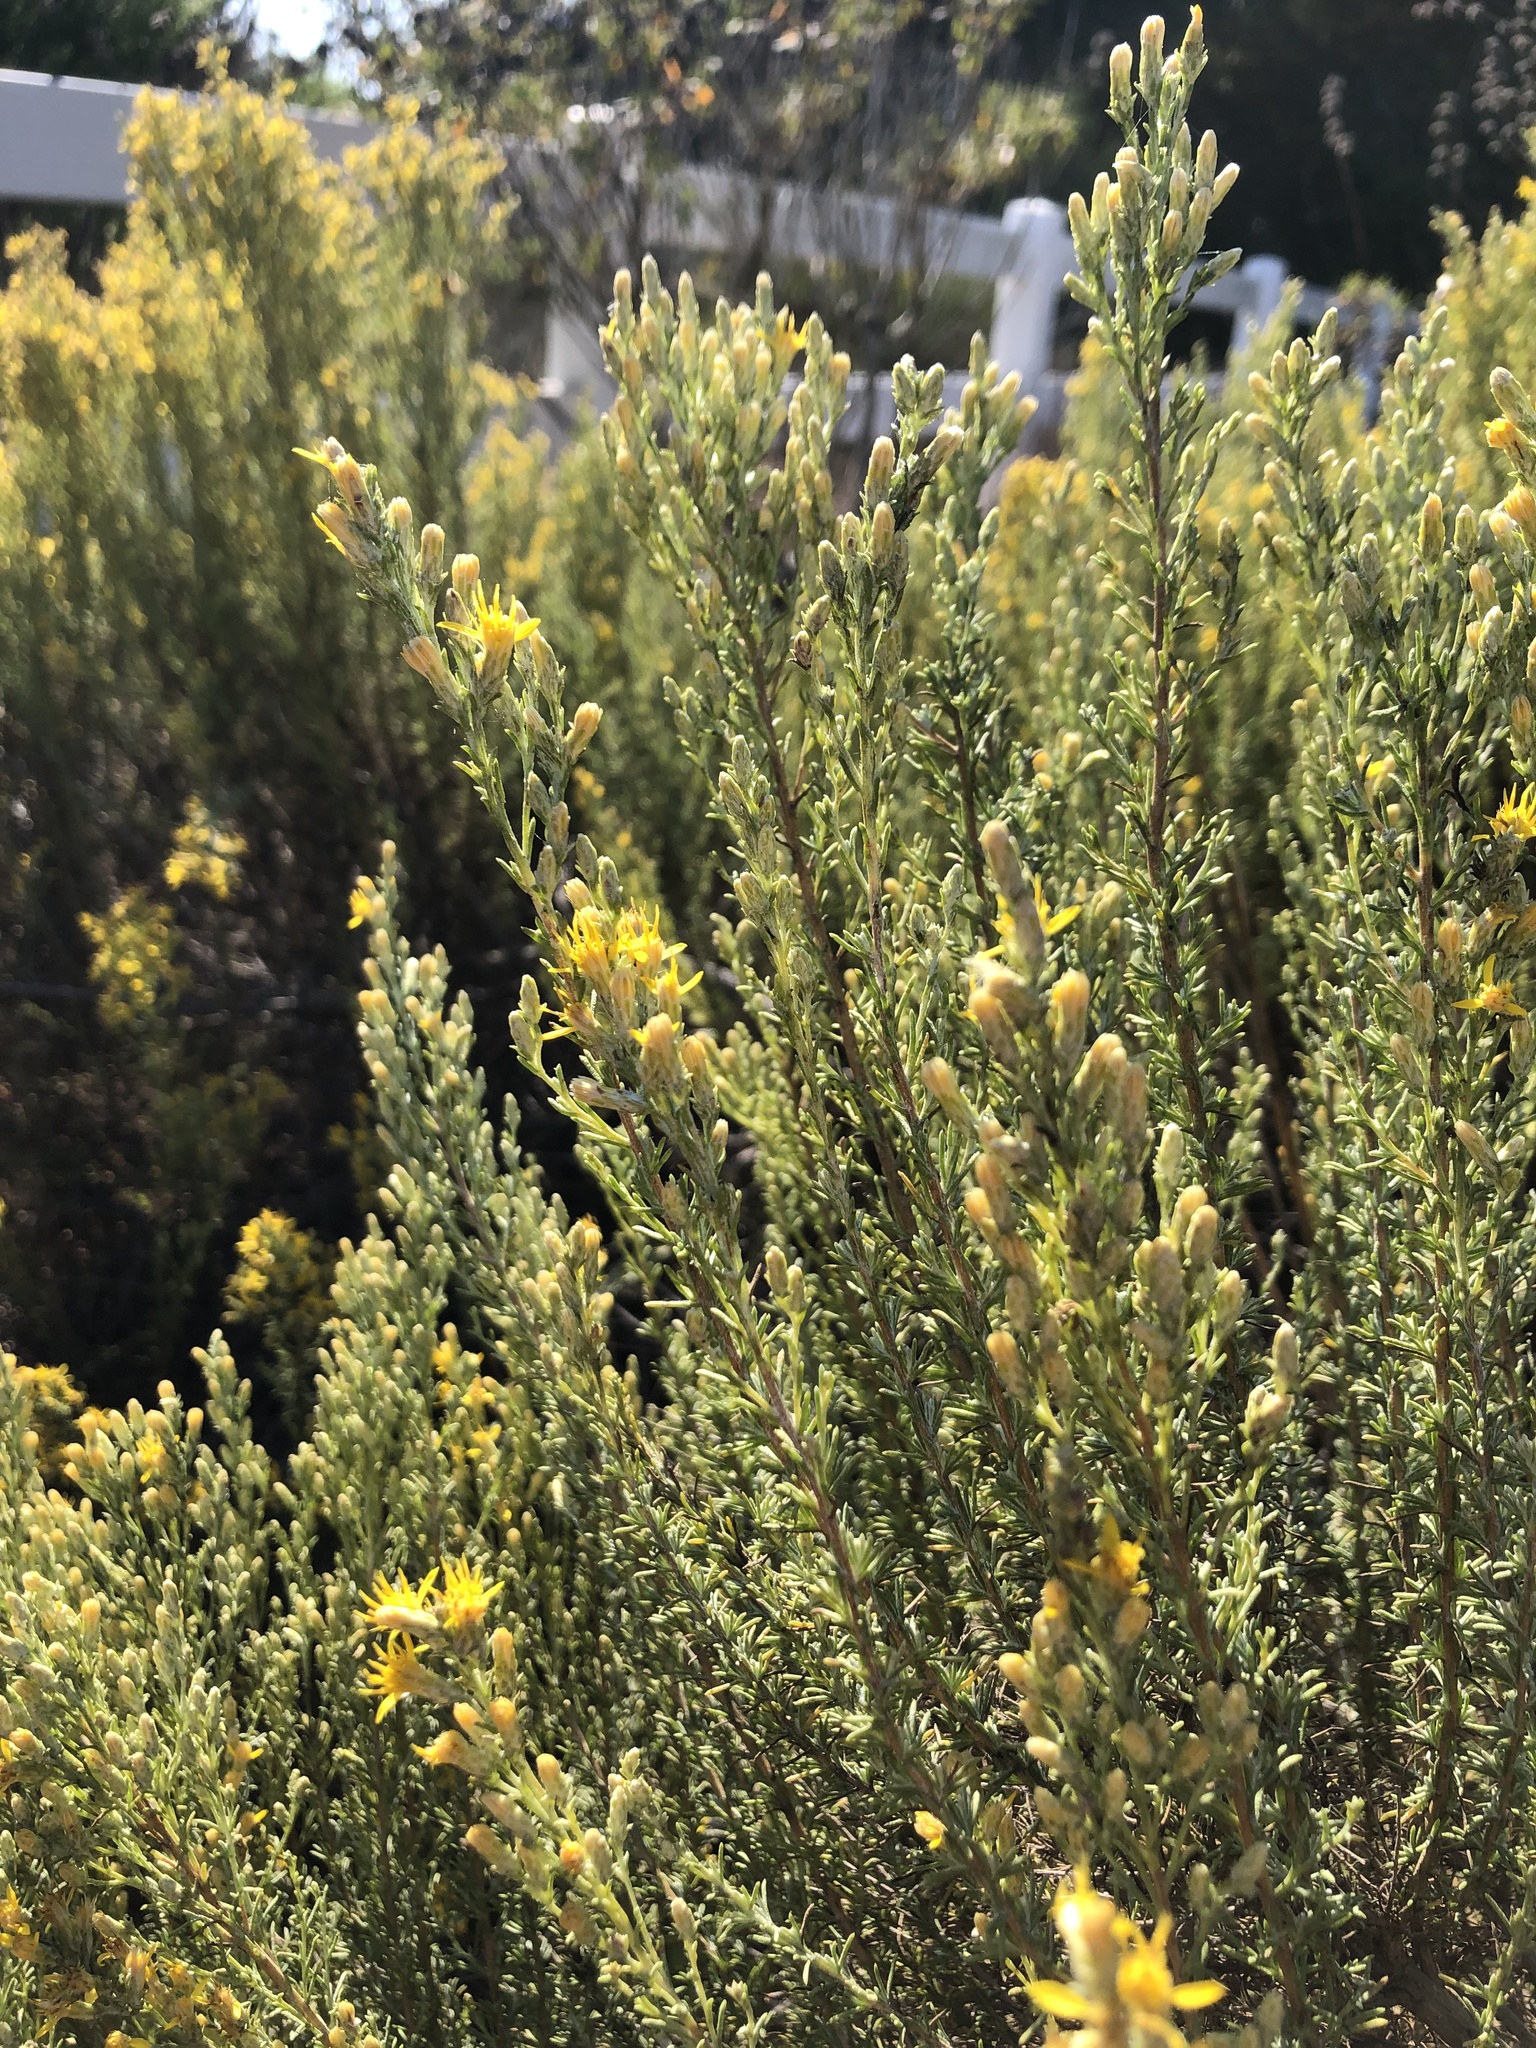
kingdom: Plantae
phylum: Tracheophyta
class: Magnoliopsida
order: Asterales
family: Asteraceae
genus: Ericameria
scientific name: Ericameria ericoides
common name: California goldenbush
